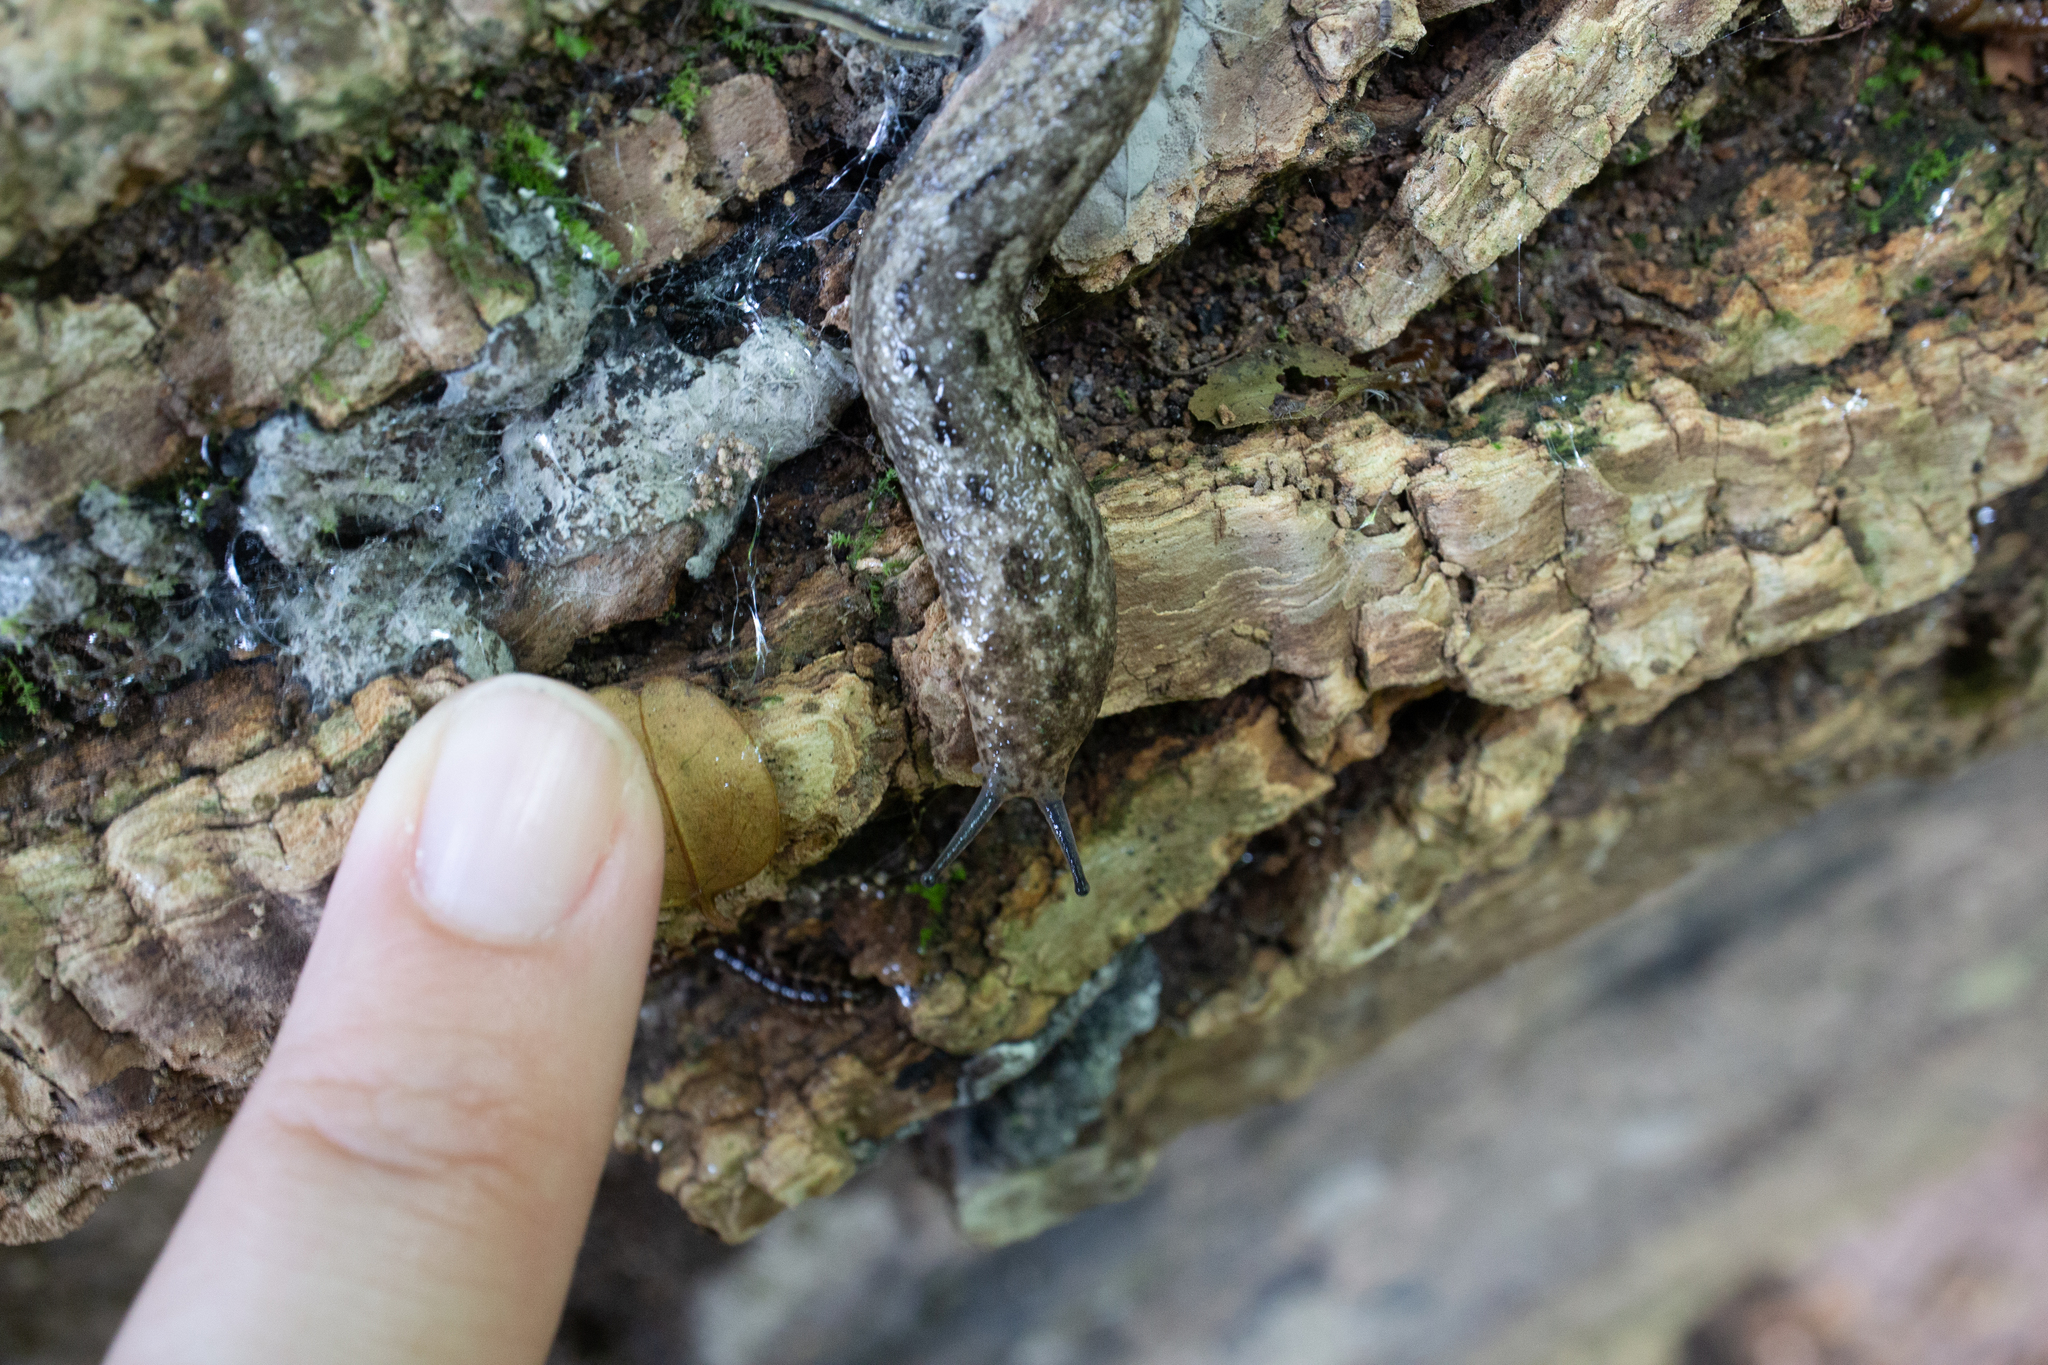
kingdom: Animalia
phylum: Mollusca
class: Gastropoda
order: Stylommatophora
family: Philomycidae
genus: Philomycus
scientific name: Philomycus carolinianus
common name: Carolina mantleslug
